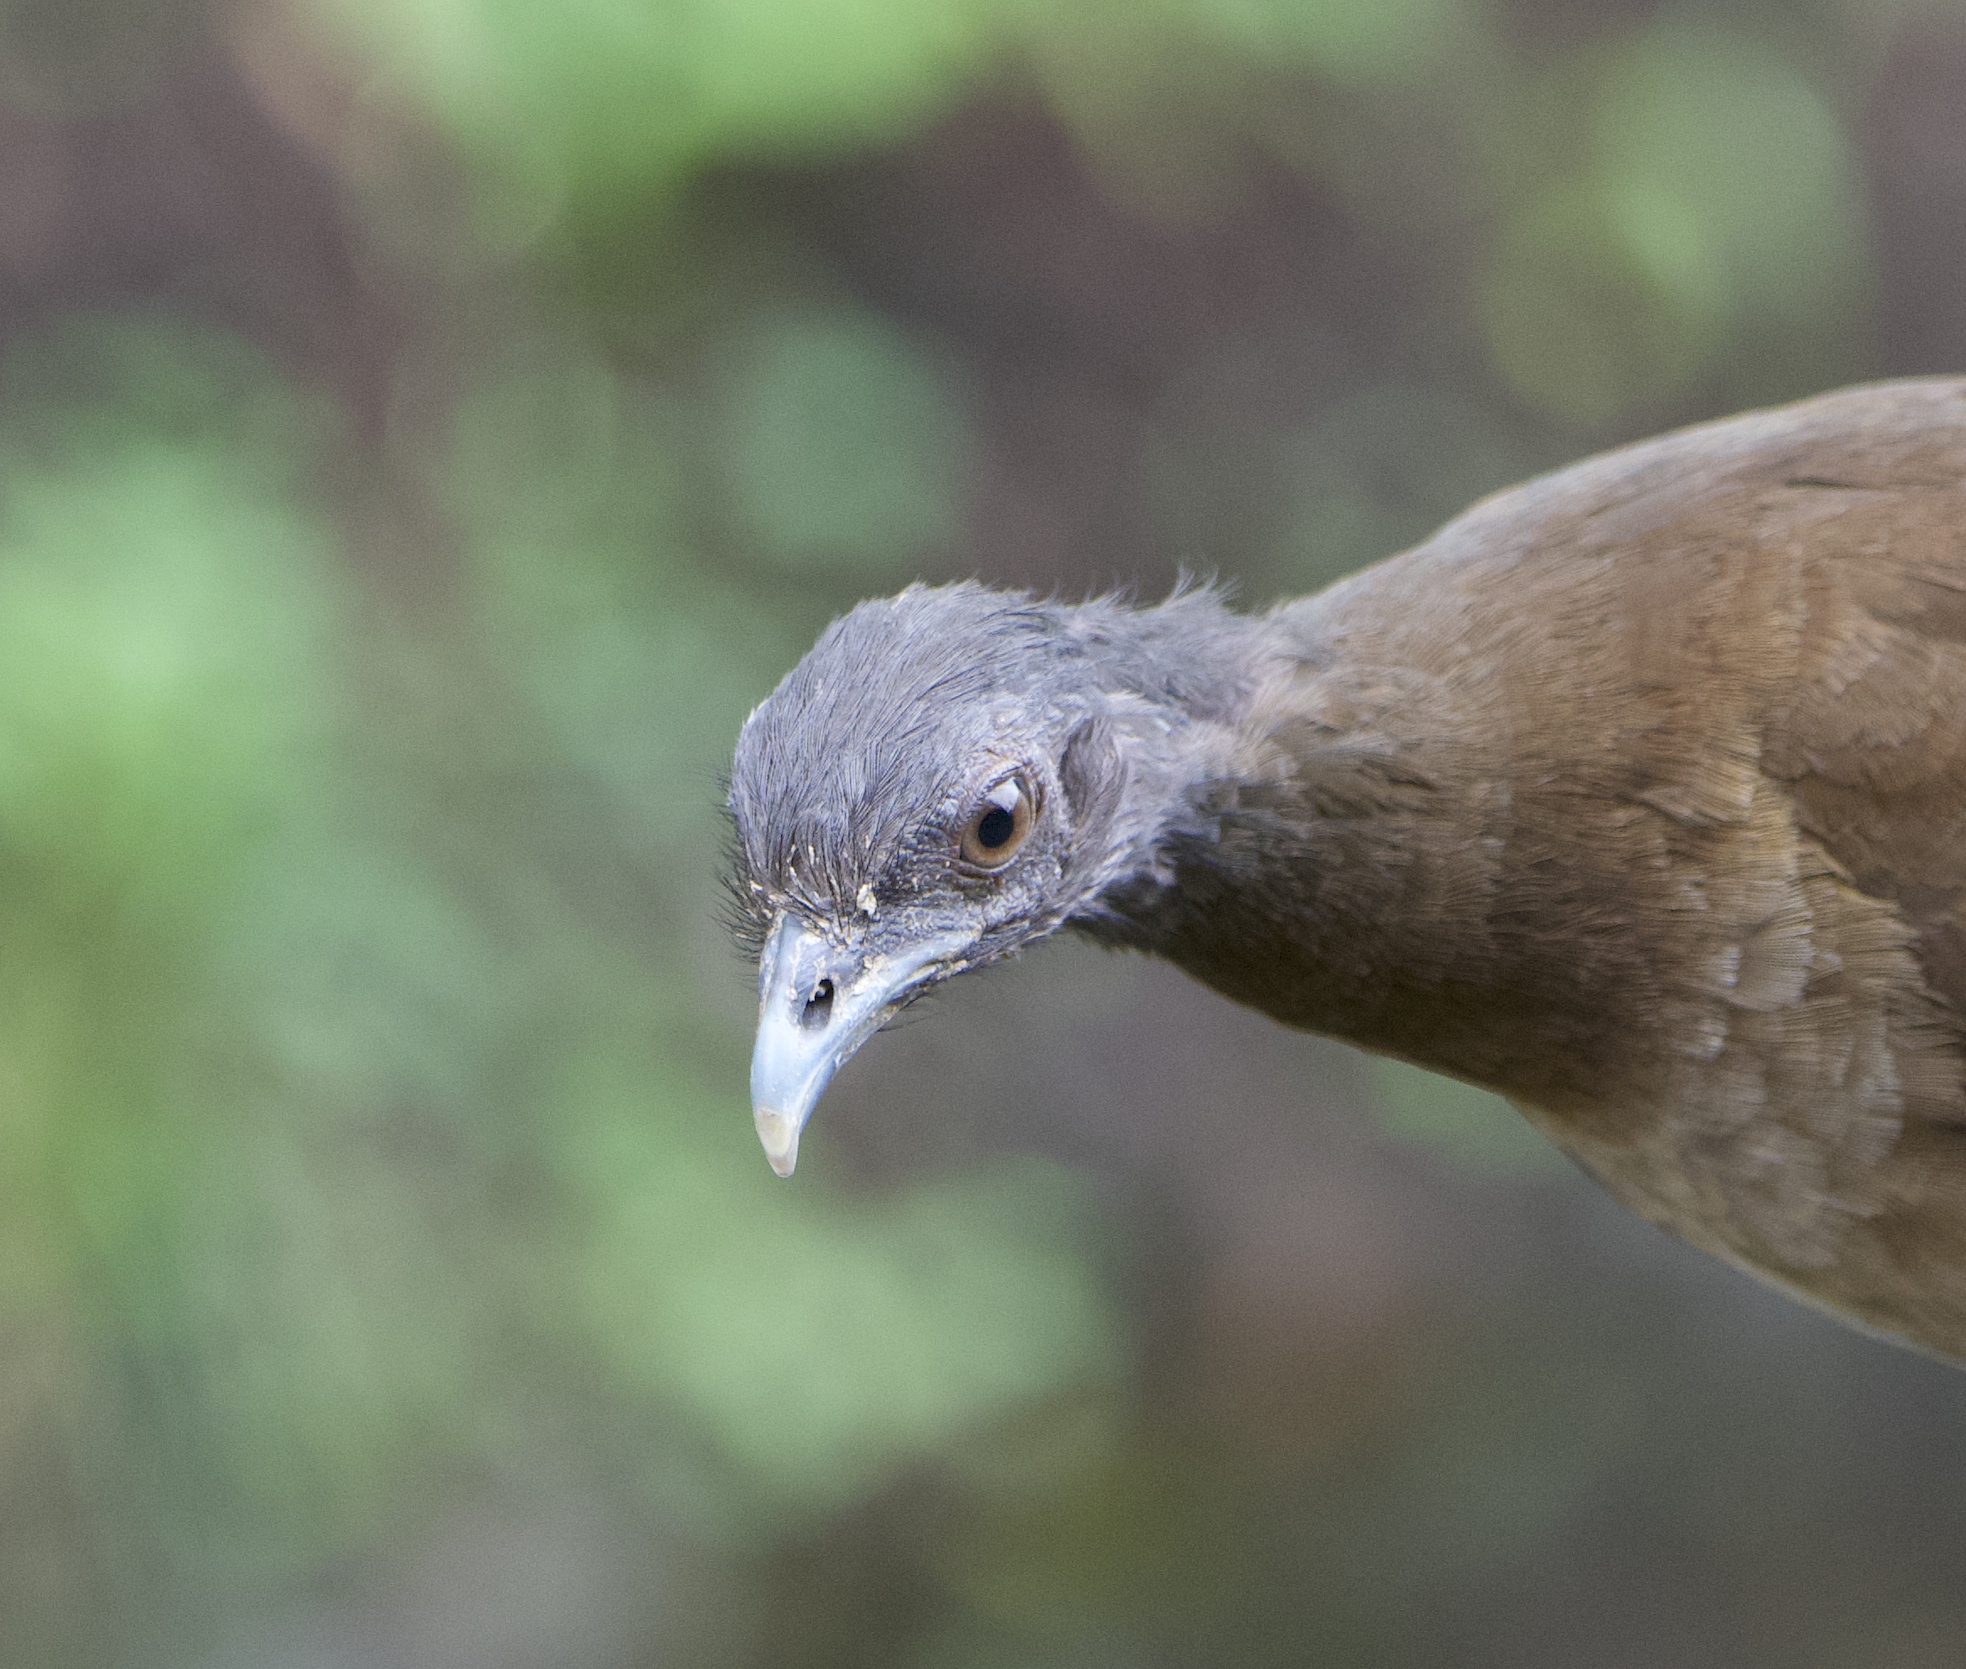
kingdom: Animalia
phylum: Chordata
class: Aves
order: Galliformes
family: Cracidae
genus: Ortalis
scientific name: Ortalis cinereiceps
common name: Grey-headed chachalaca
